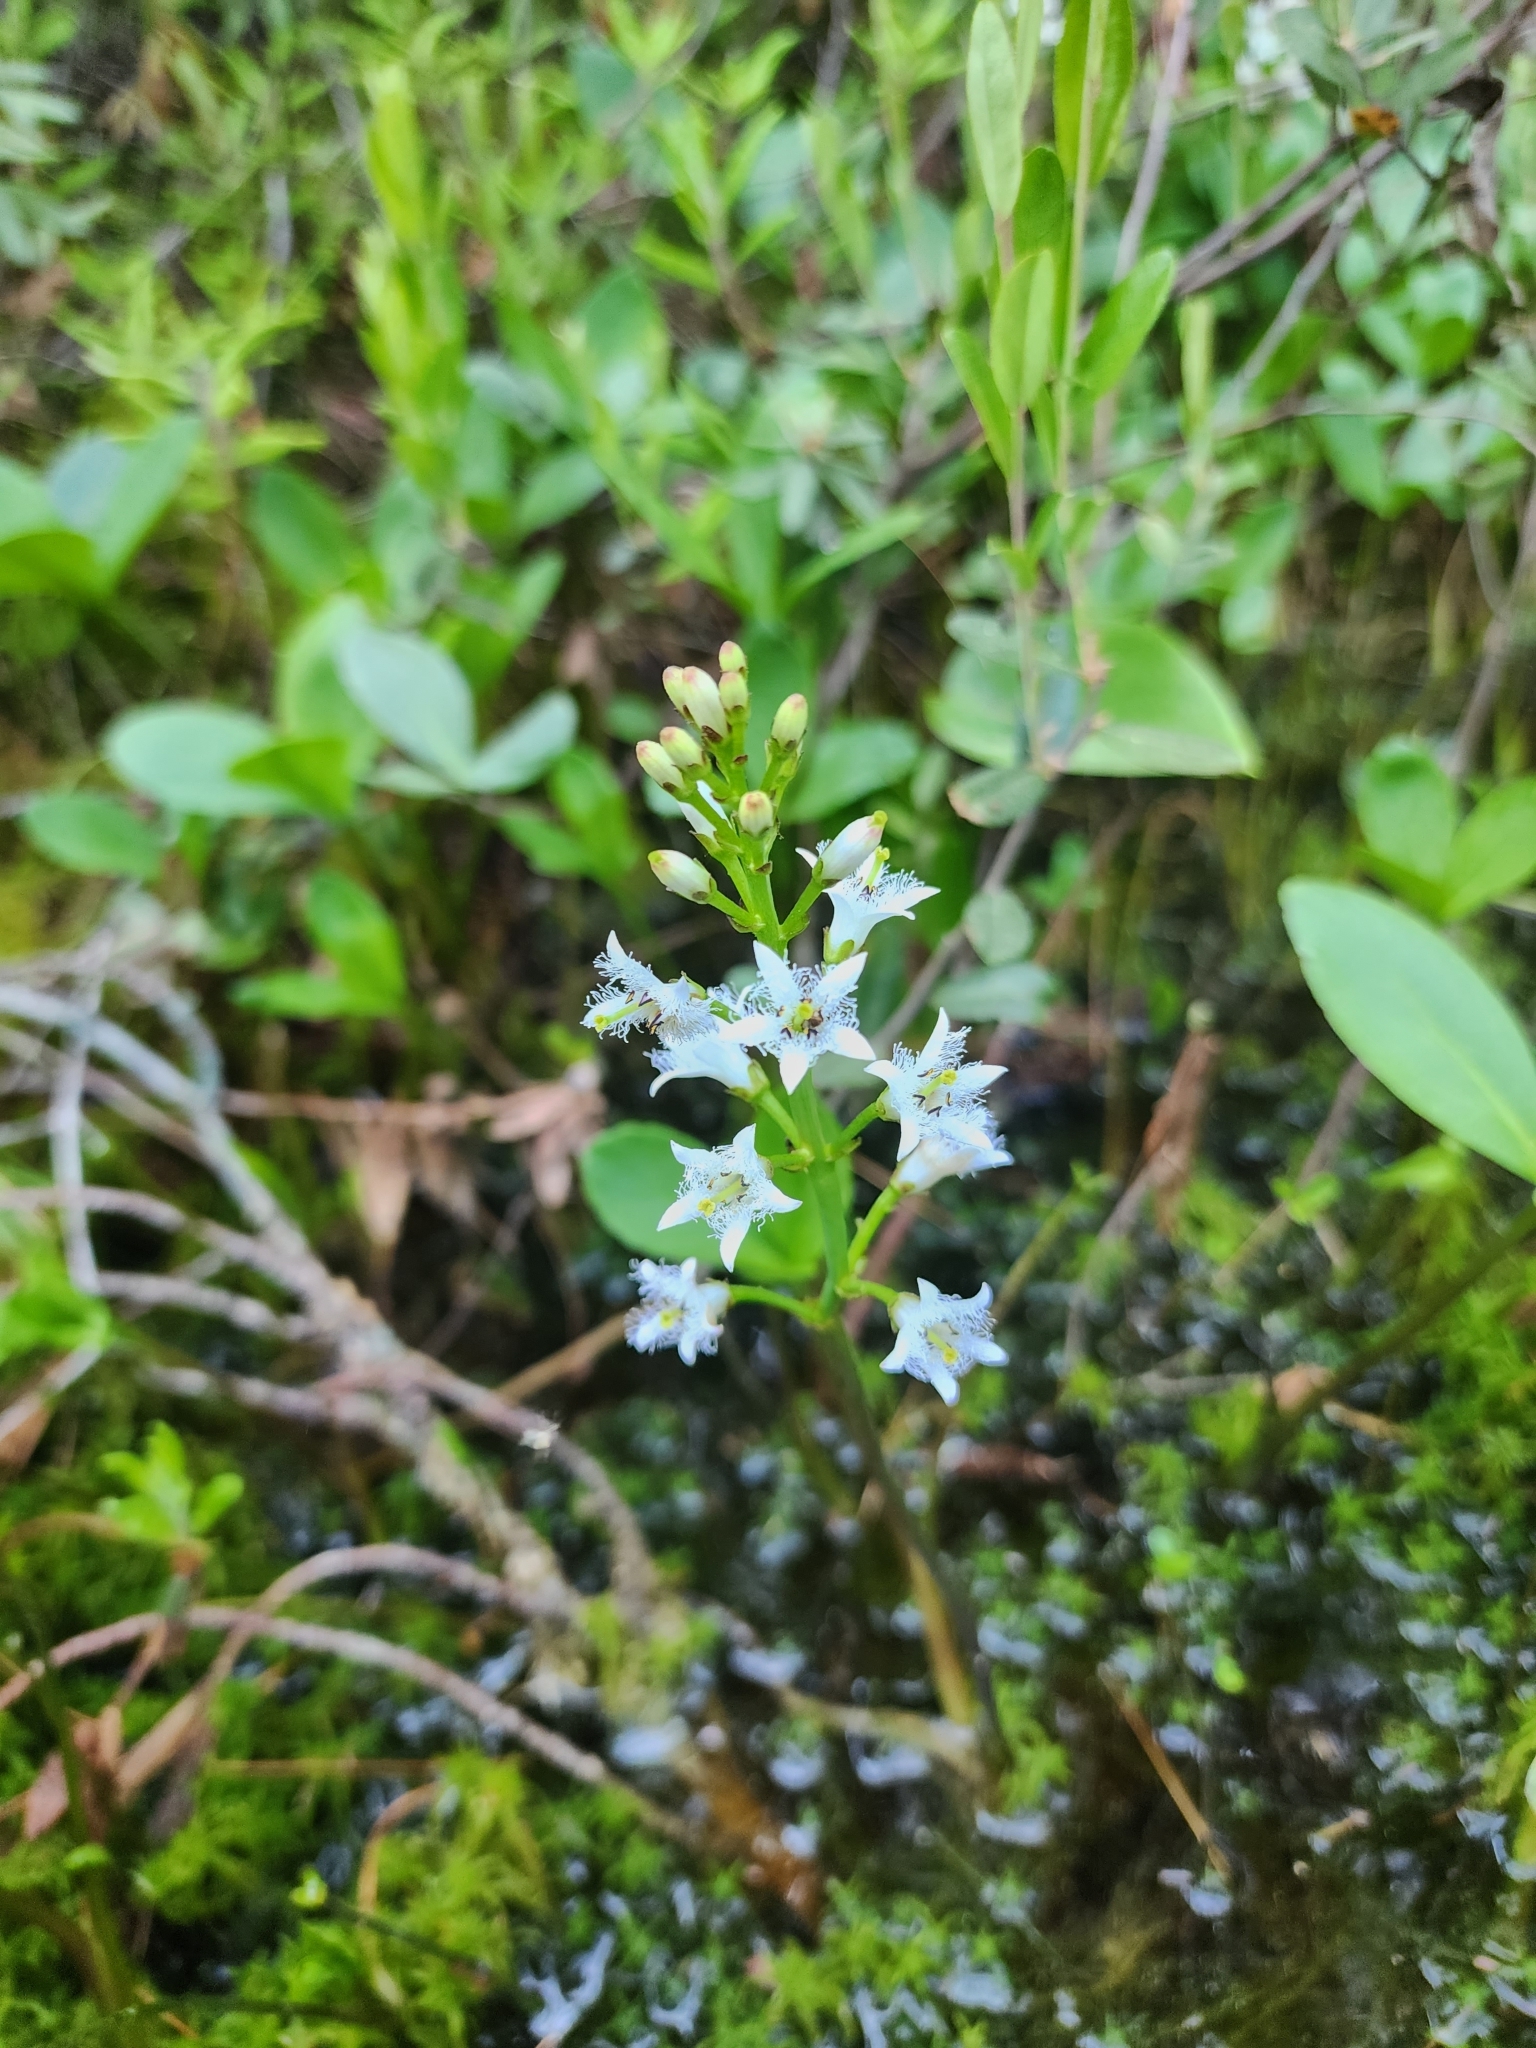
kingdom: Plantae
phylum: Tracheophyta
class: Magnoliopsida
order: Asterales
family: Menyanthaceae
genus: Menyanthes
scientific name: Menyanthes trifoliata
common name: Bogbean
